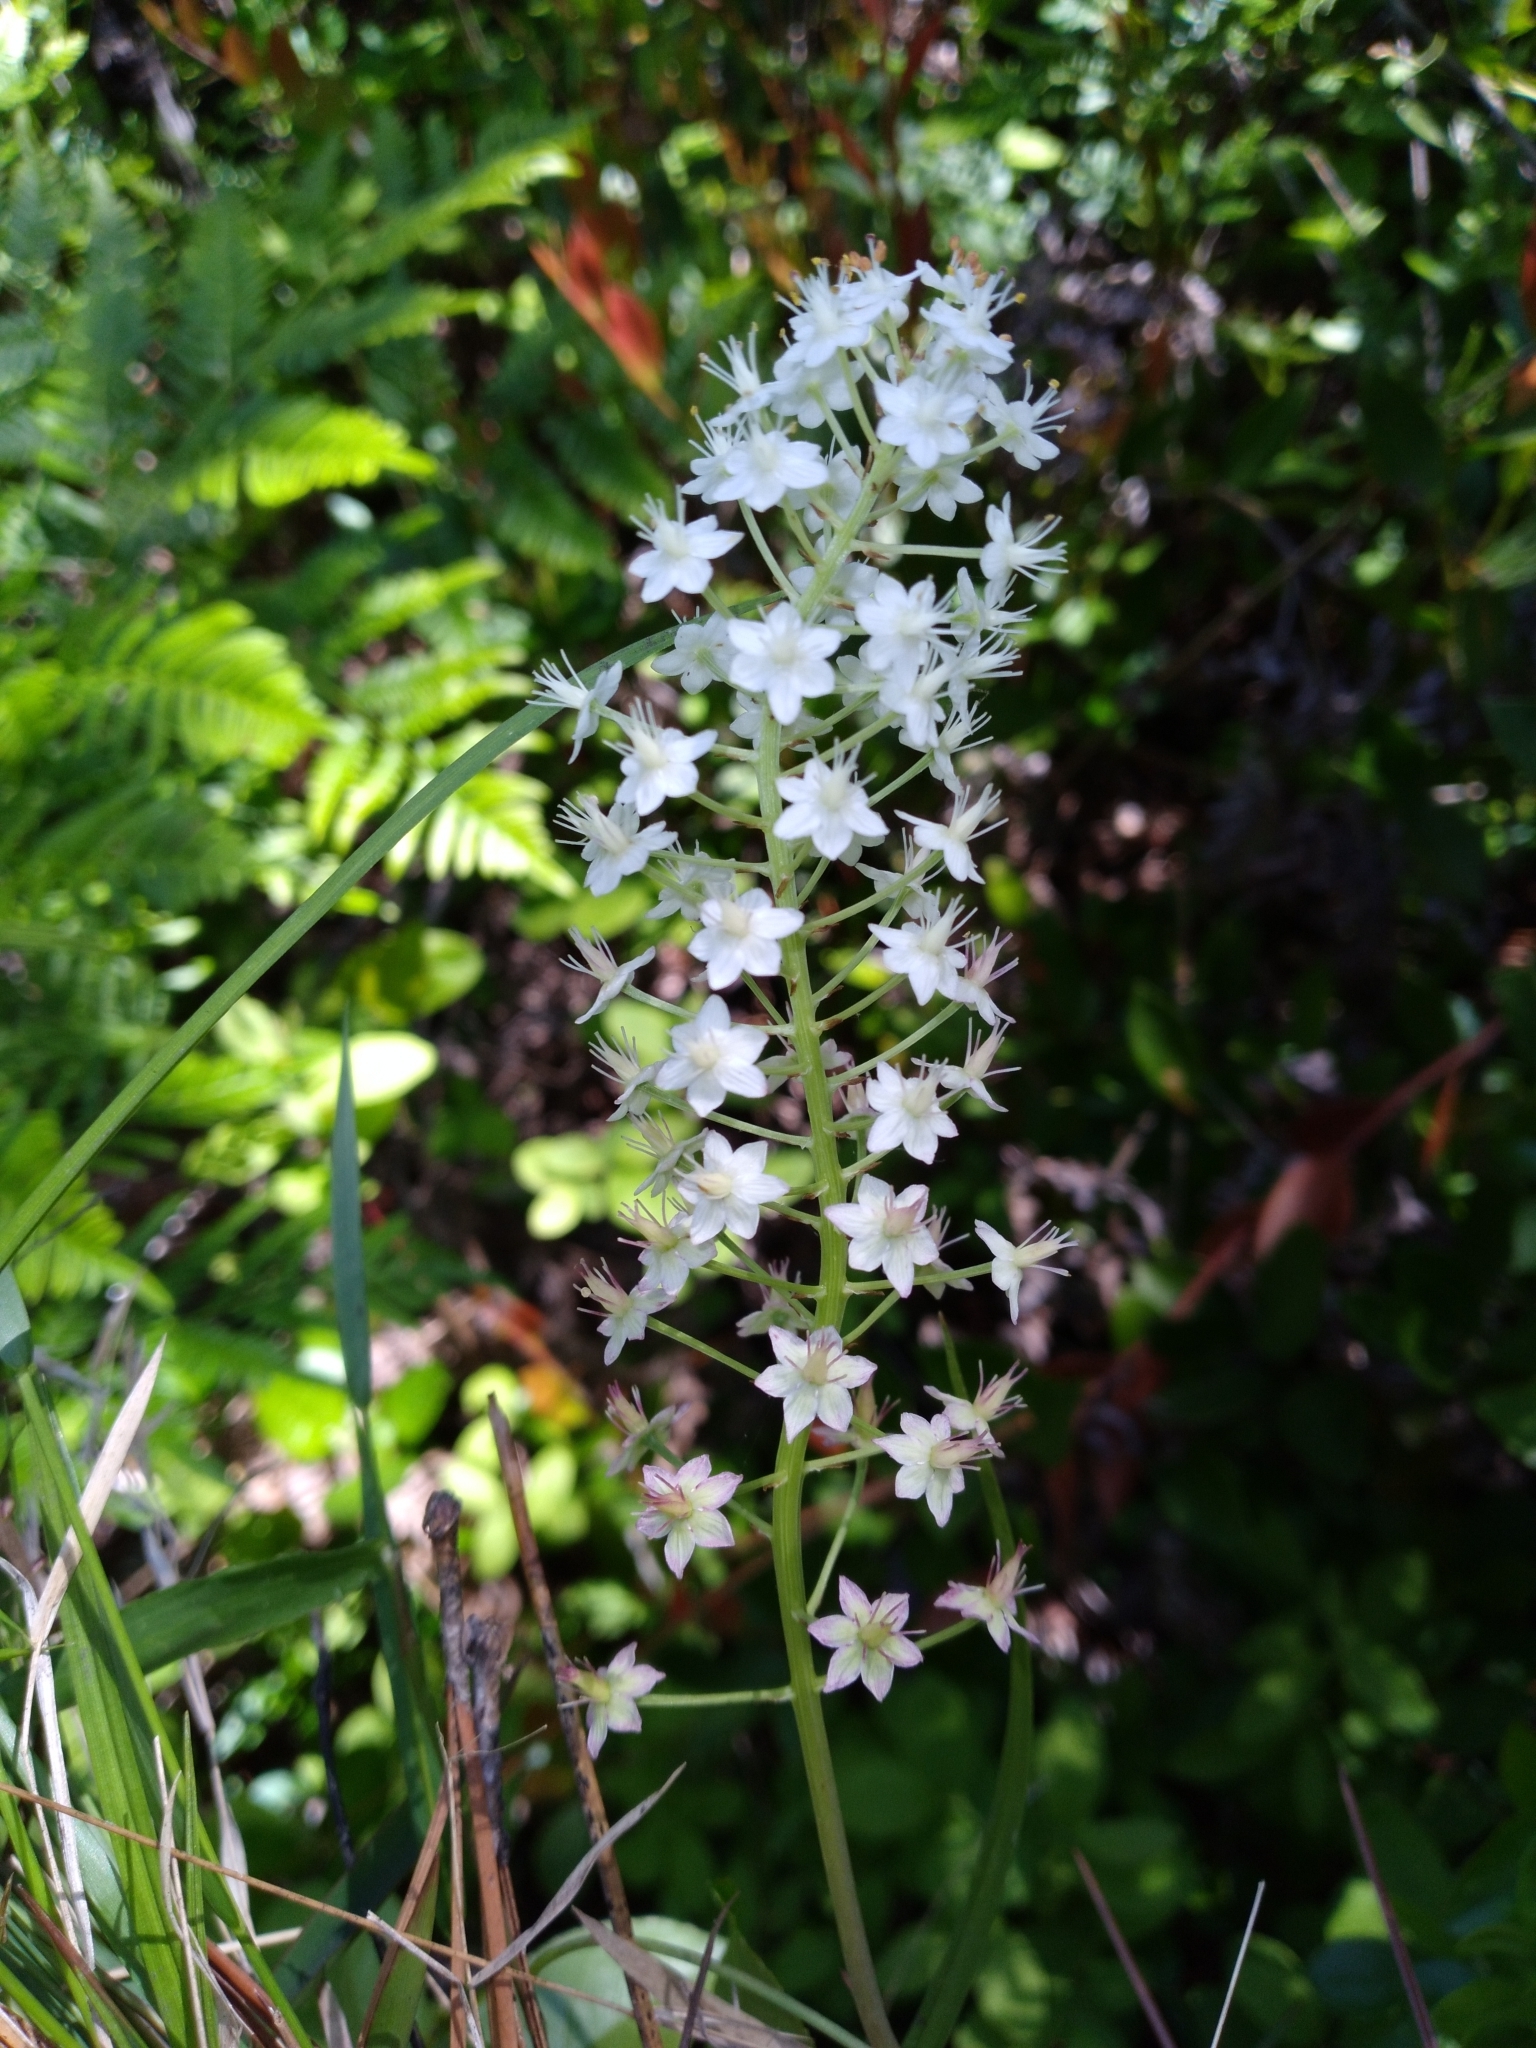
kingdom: Plantae
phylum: Tracheophyta
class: Liliopsida
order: Liliales
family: Melanthiaceae
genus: Stenanthium
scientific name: Stenanthium densum
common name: Crow-poison
